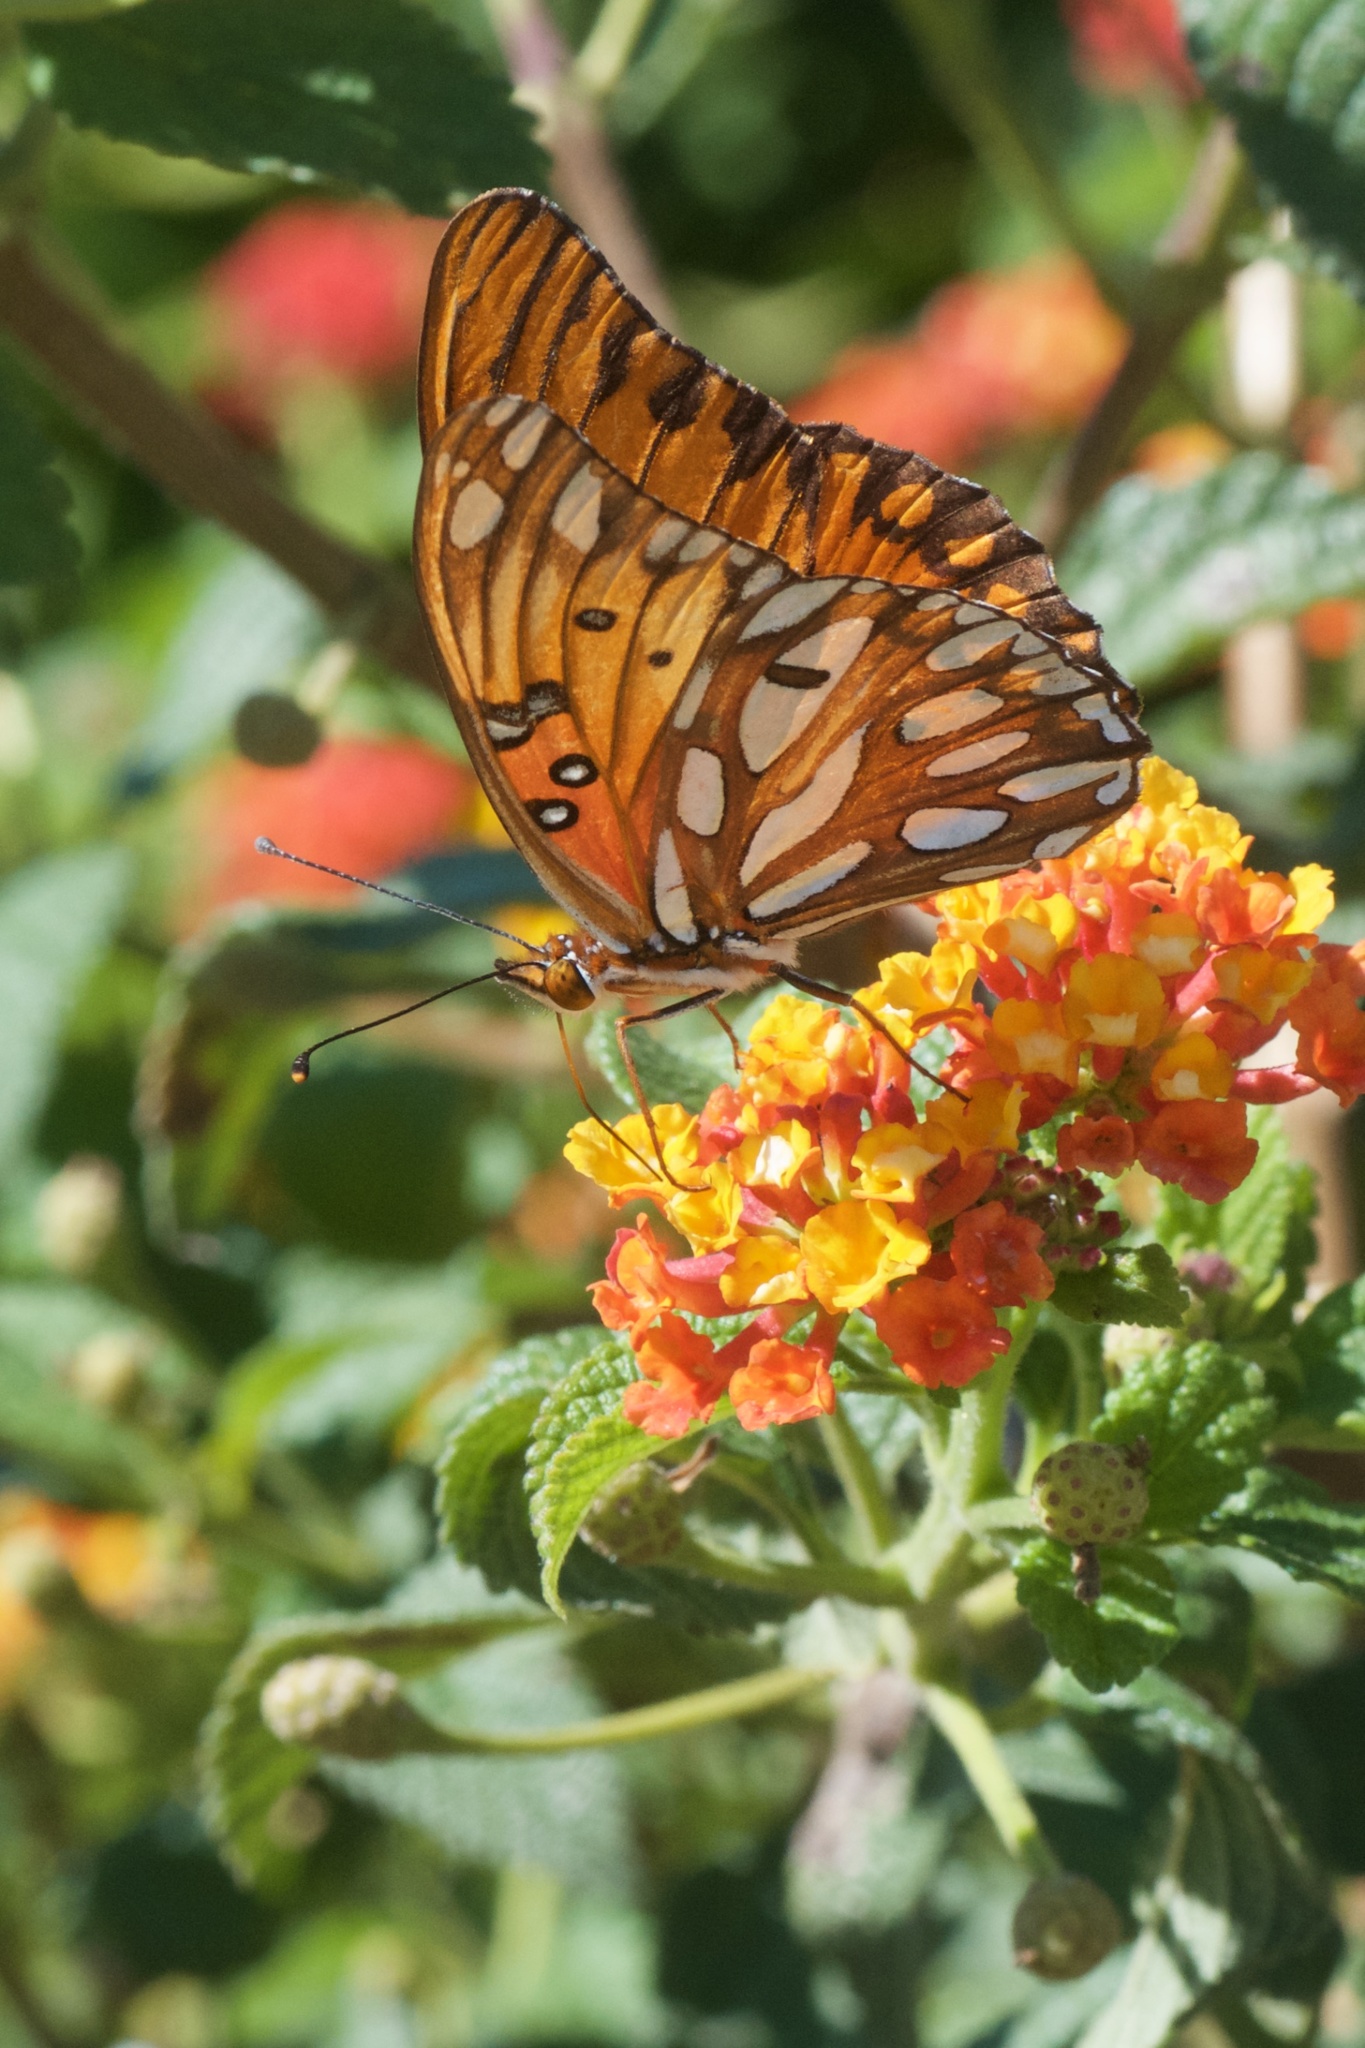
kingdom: Animalia
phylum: Arthropoda
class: Insecta
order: Lepidoptera
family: Nymphalidae
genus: Dione
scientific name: Dione vanillae
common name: Gulf fritillary
